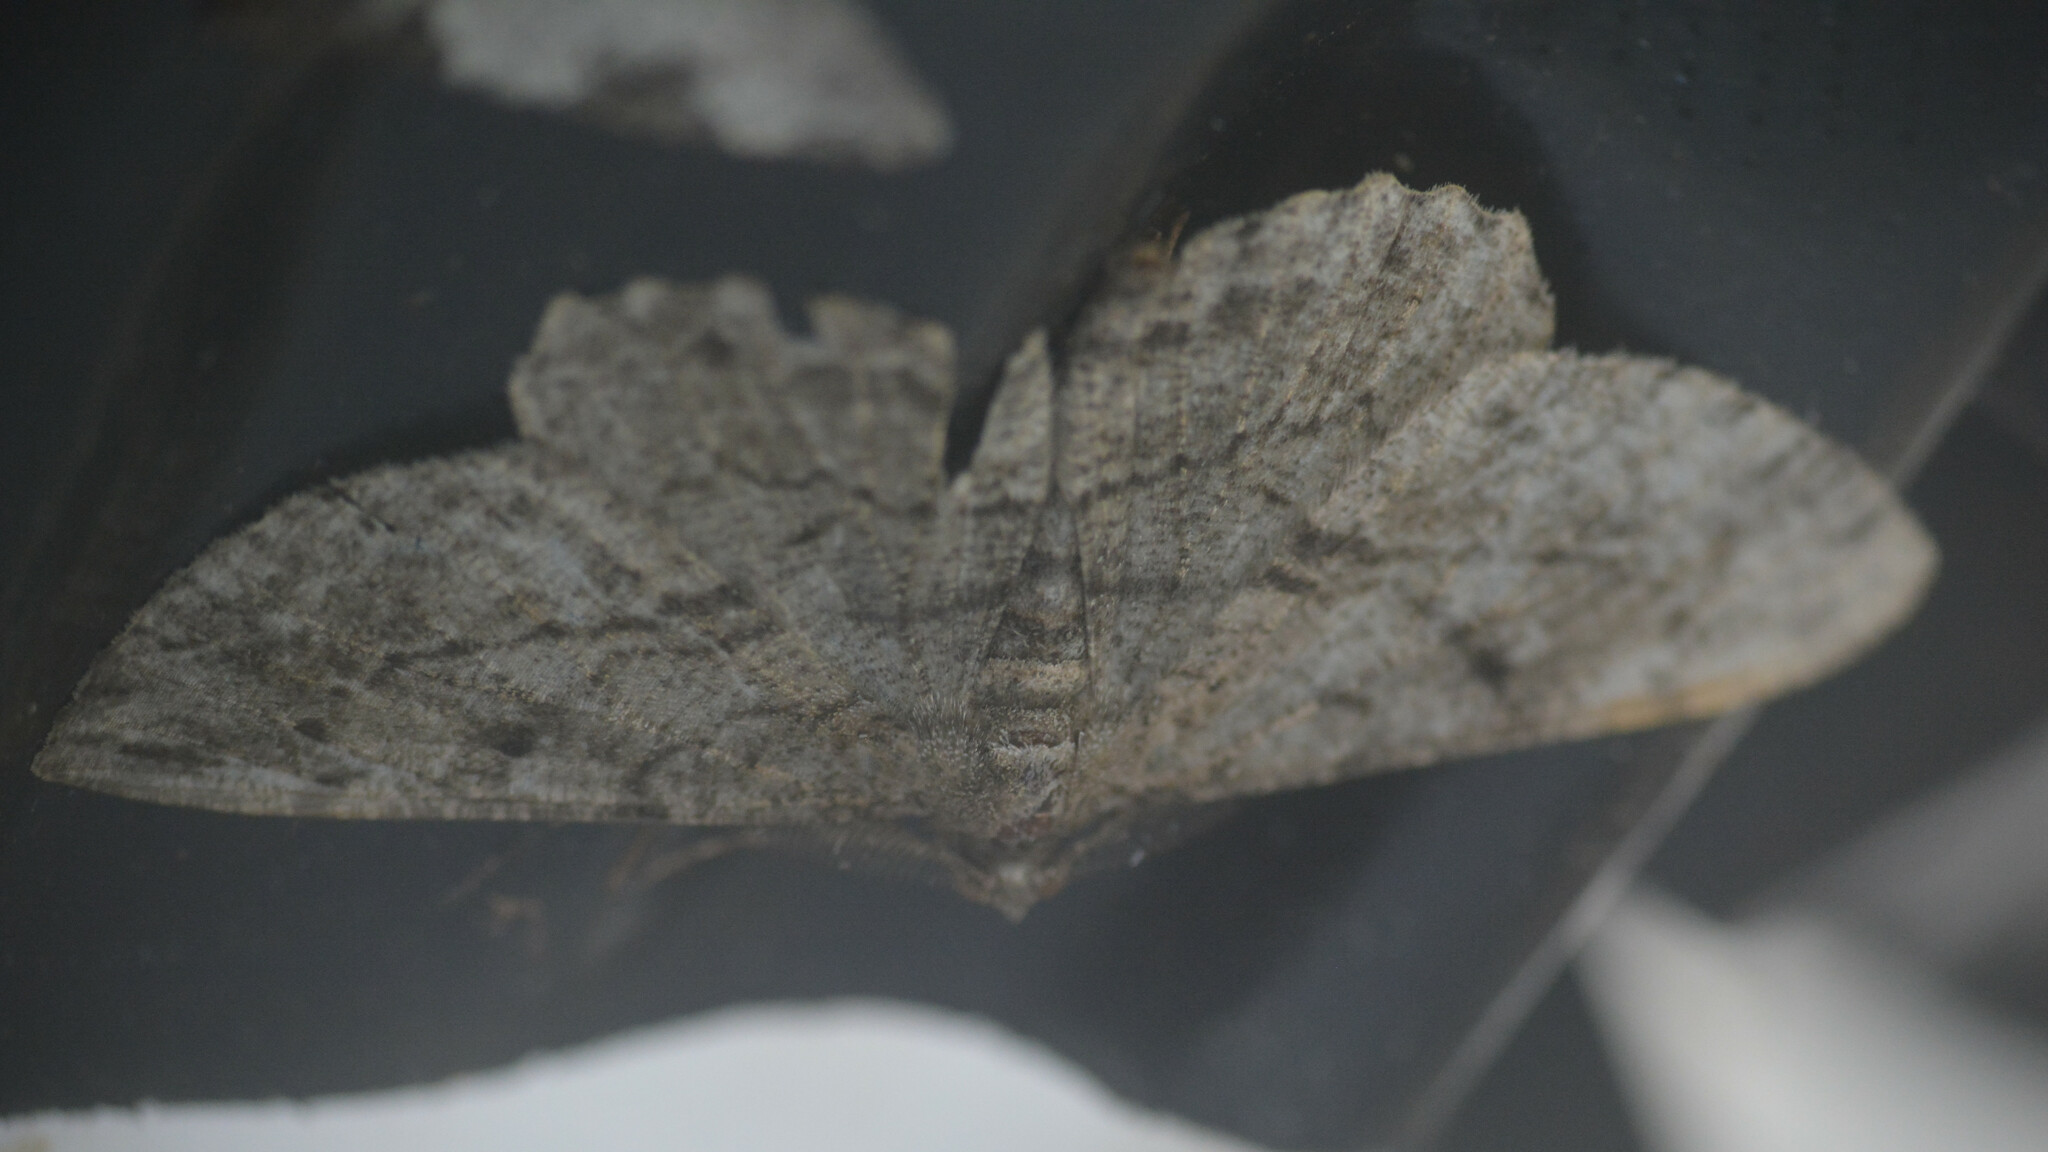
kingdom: Animalia
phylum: Arthropoda
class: Insecta
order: Lepidoptera
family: Geometridae
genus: Peribatodes
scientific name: Peribatodes rhomboidaria
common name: Willow beauty
